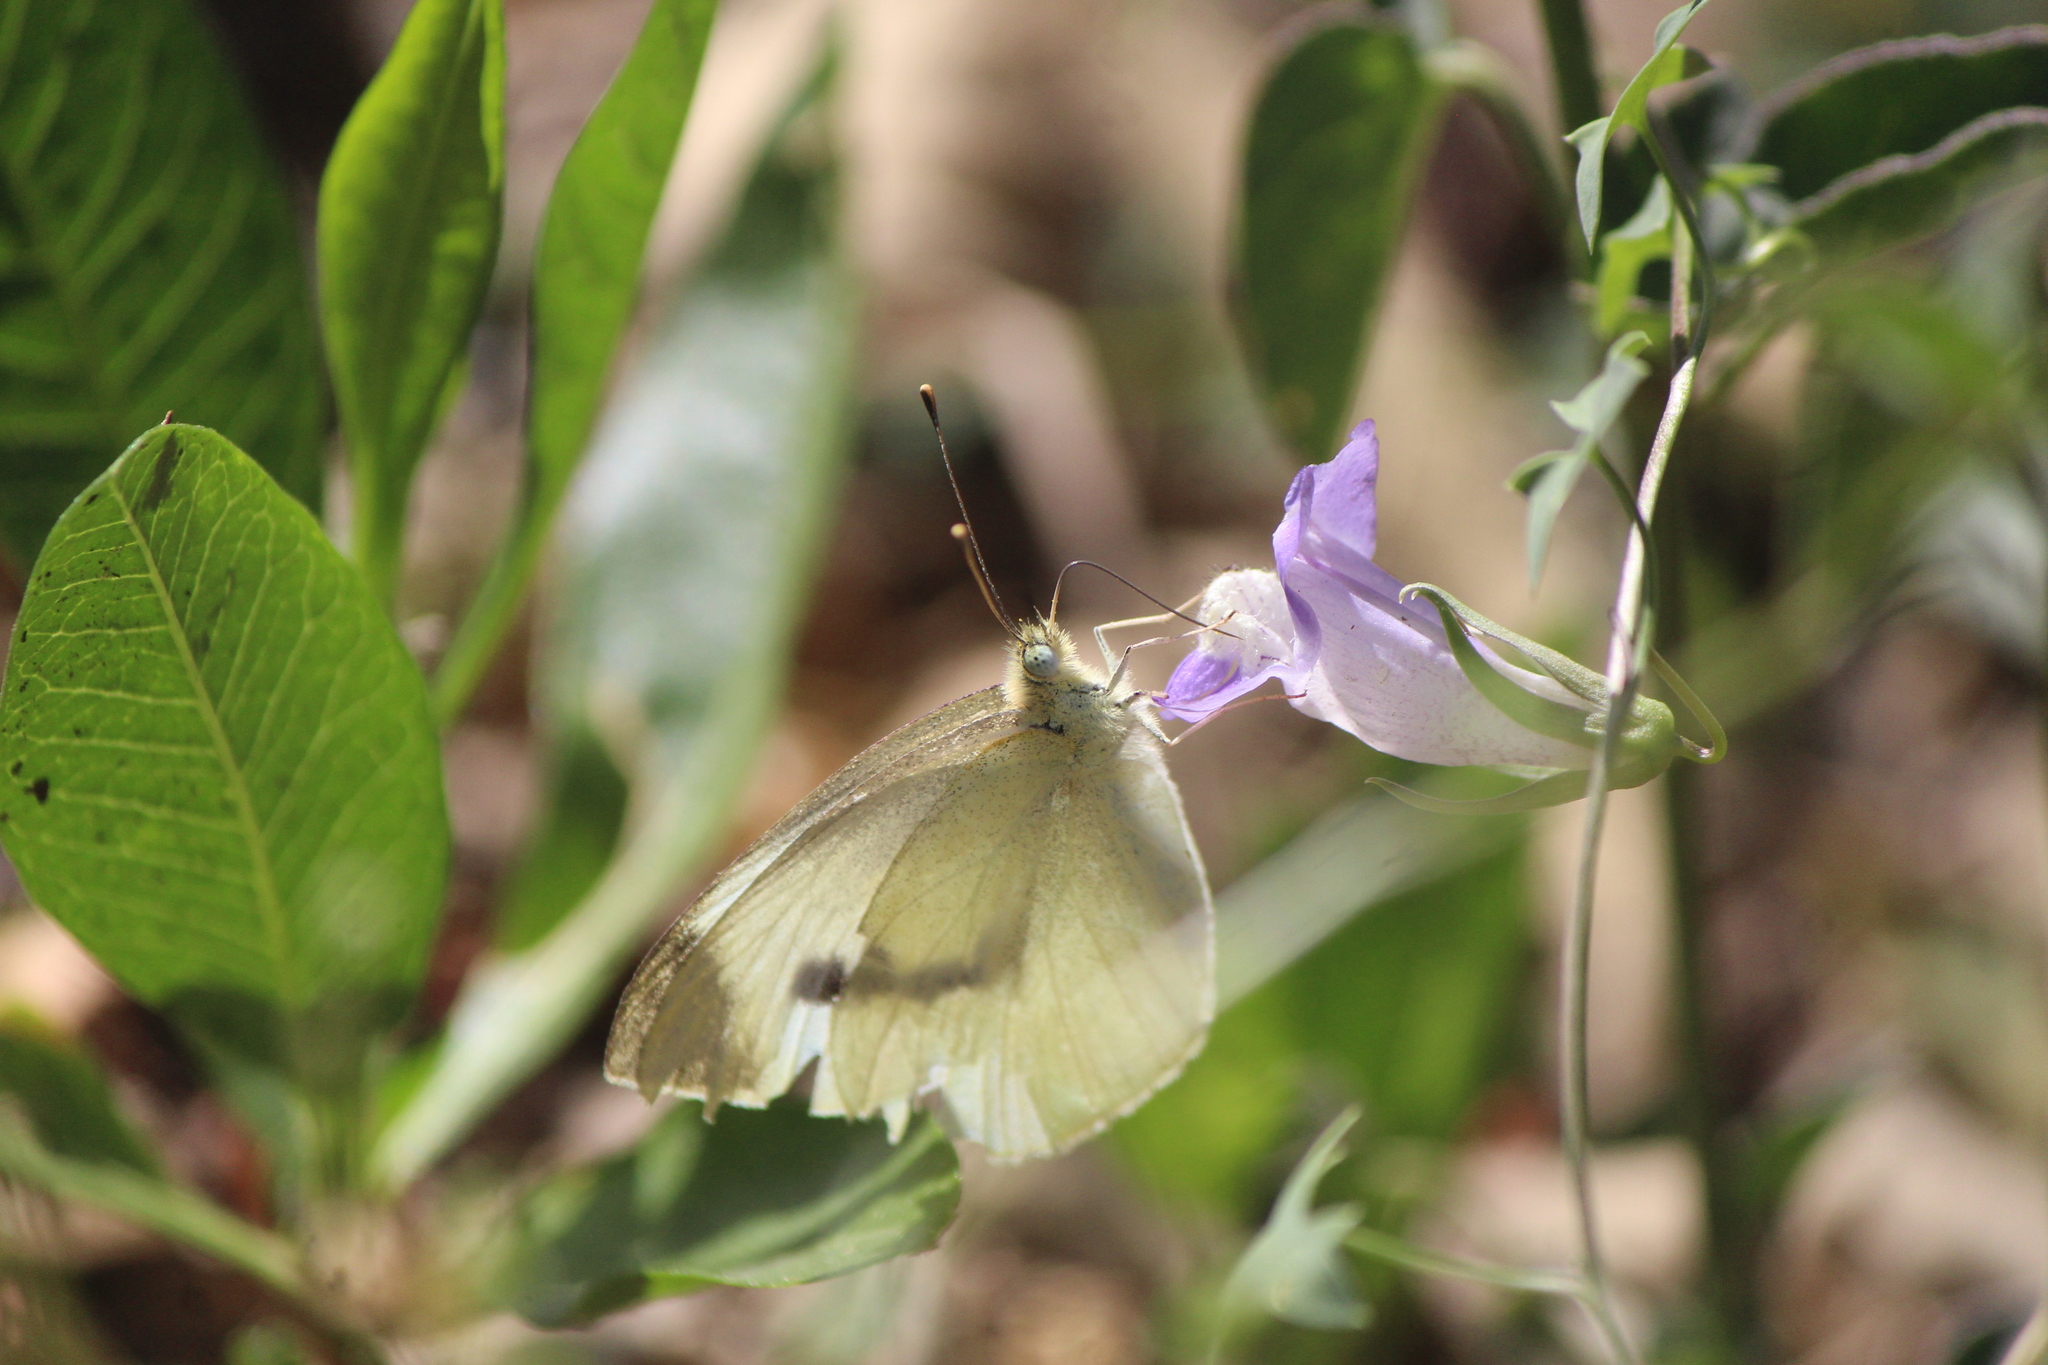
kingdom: Animalia
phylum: Arthropoda
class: Insecta
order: Lepidoptera
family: Pieridae
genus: Pieris
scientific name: Pieris rapae
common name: Small white
